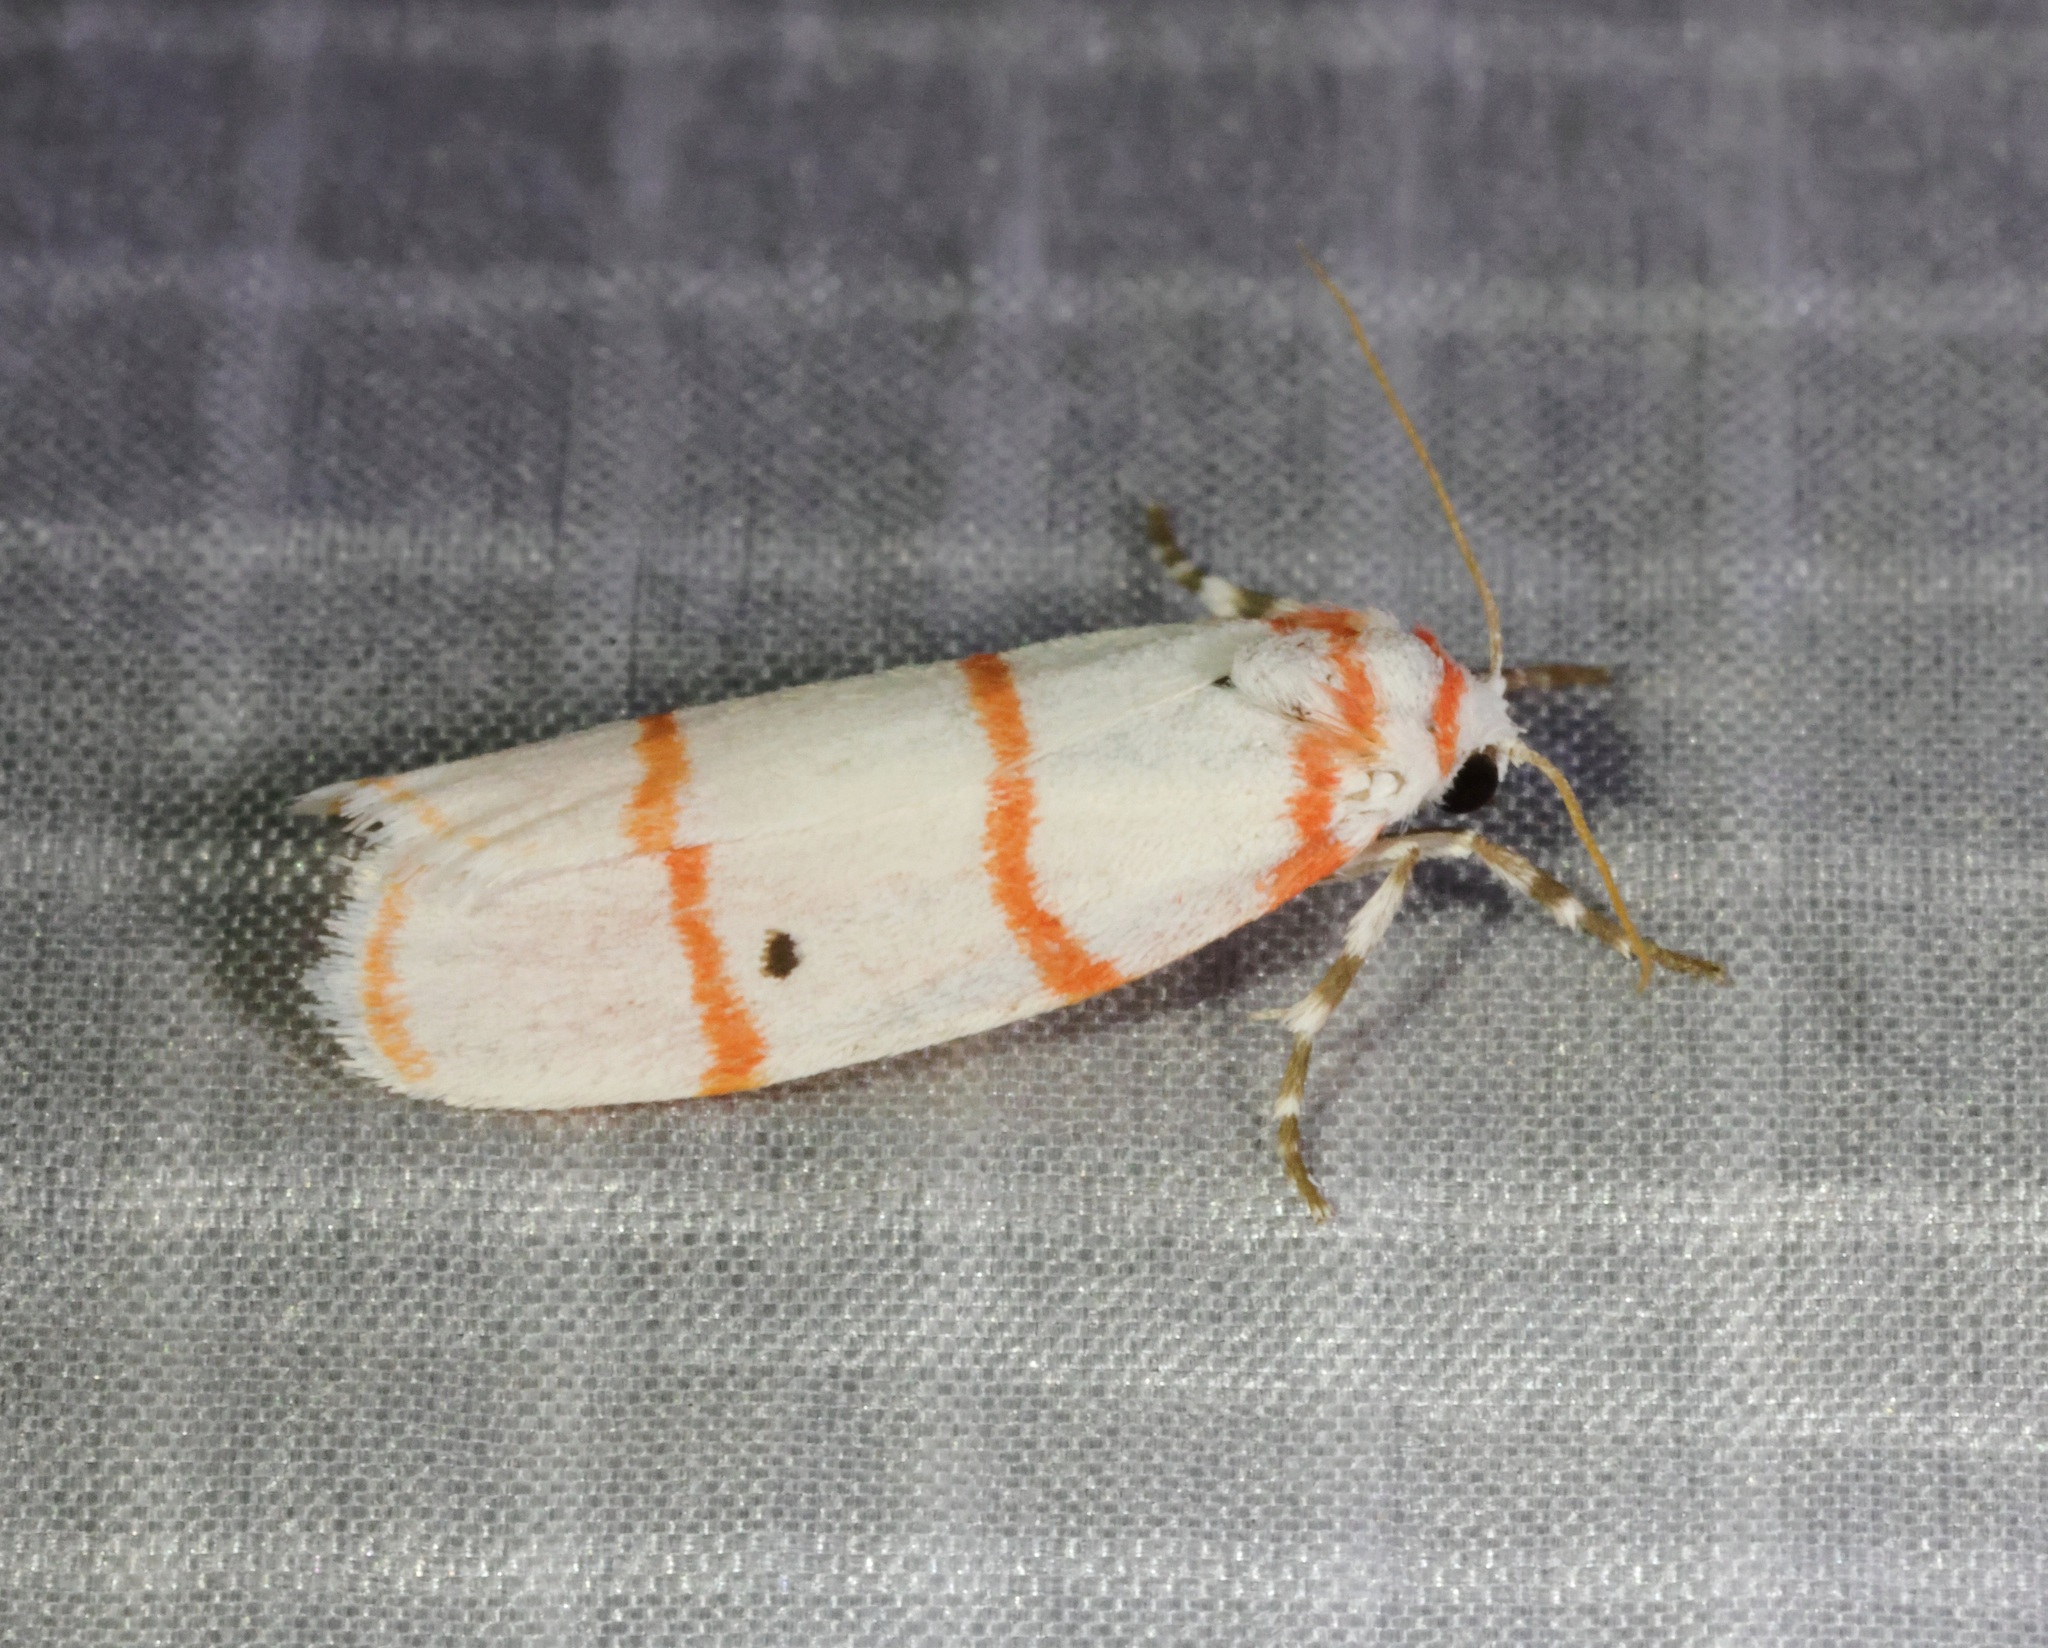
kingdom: Animalia
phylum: Arthropoda
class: Insecta
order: Lepidoptera
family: Erebidae
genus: Cyana
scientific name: Cyana gelida
